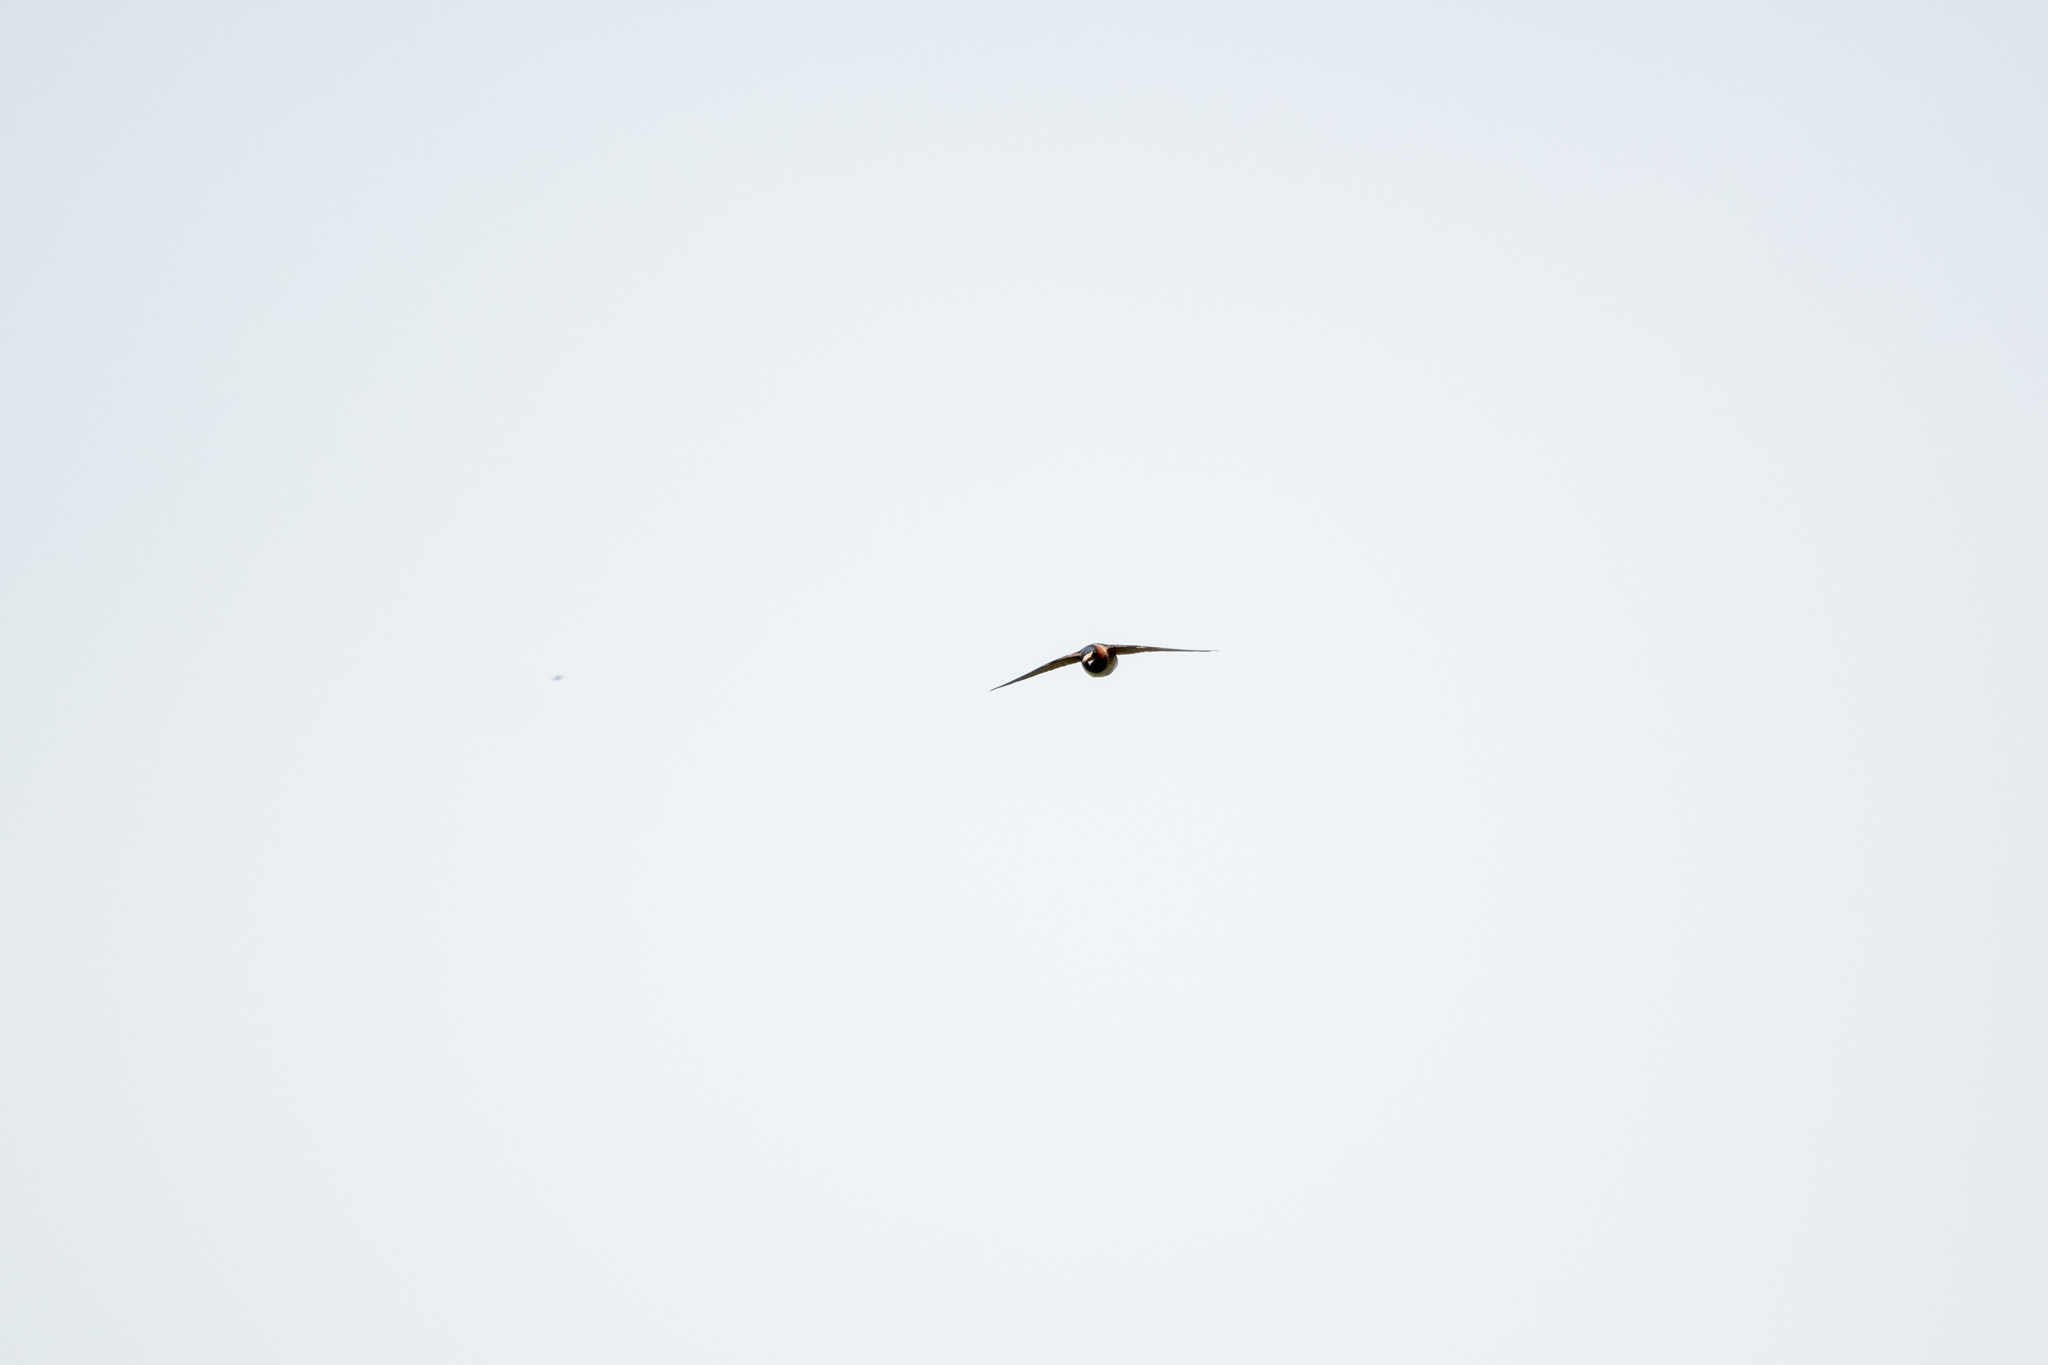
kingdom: Animalia
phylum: Chordata
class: Aves
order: Passeriformes
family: Hirundinidae
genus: Petrochelidon
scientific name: Petrochelidon pyrrhonota
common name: American cliff swallow
